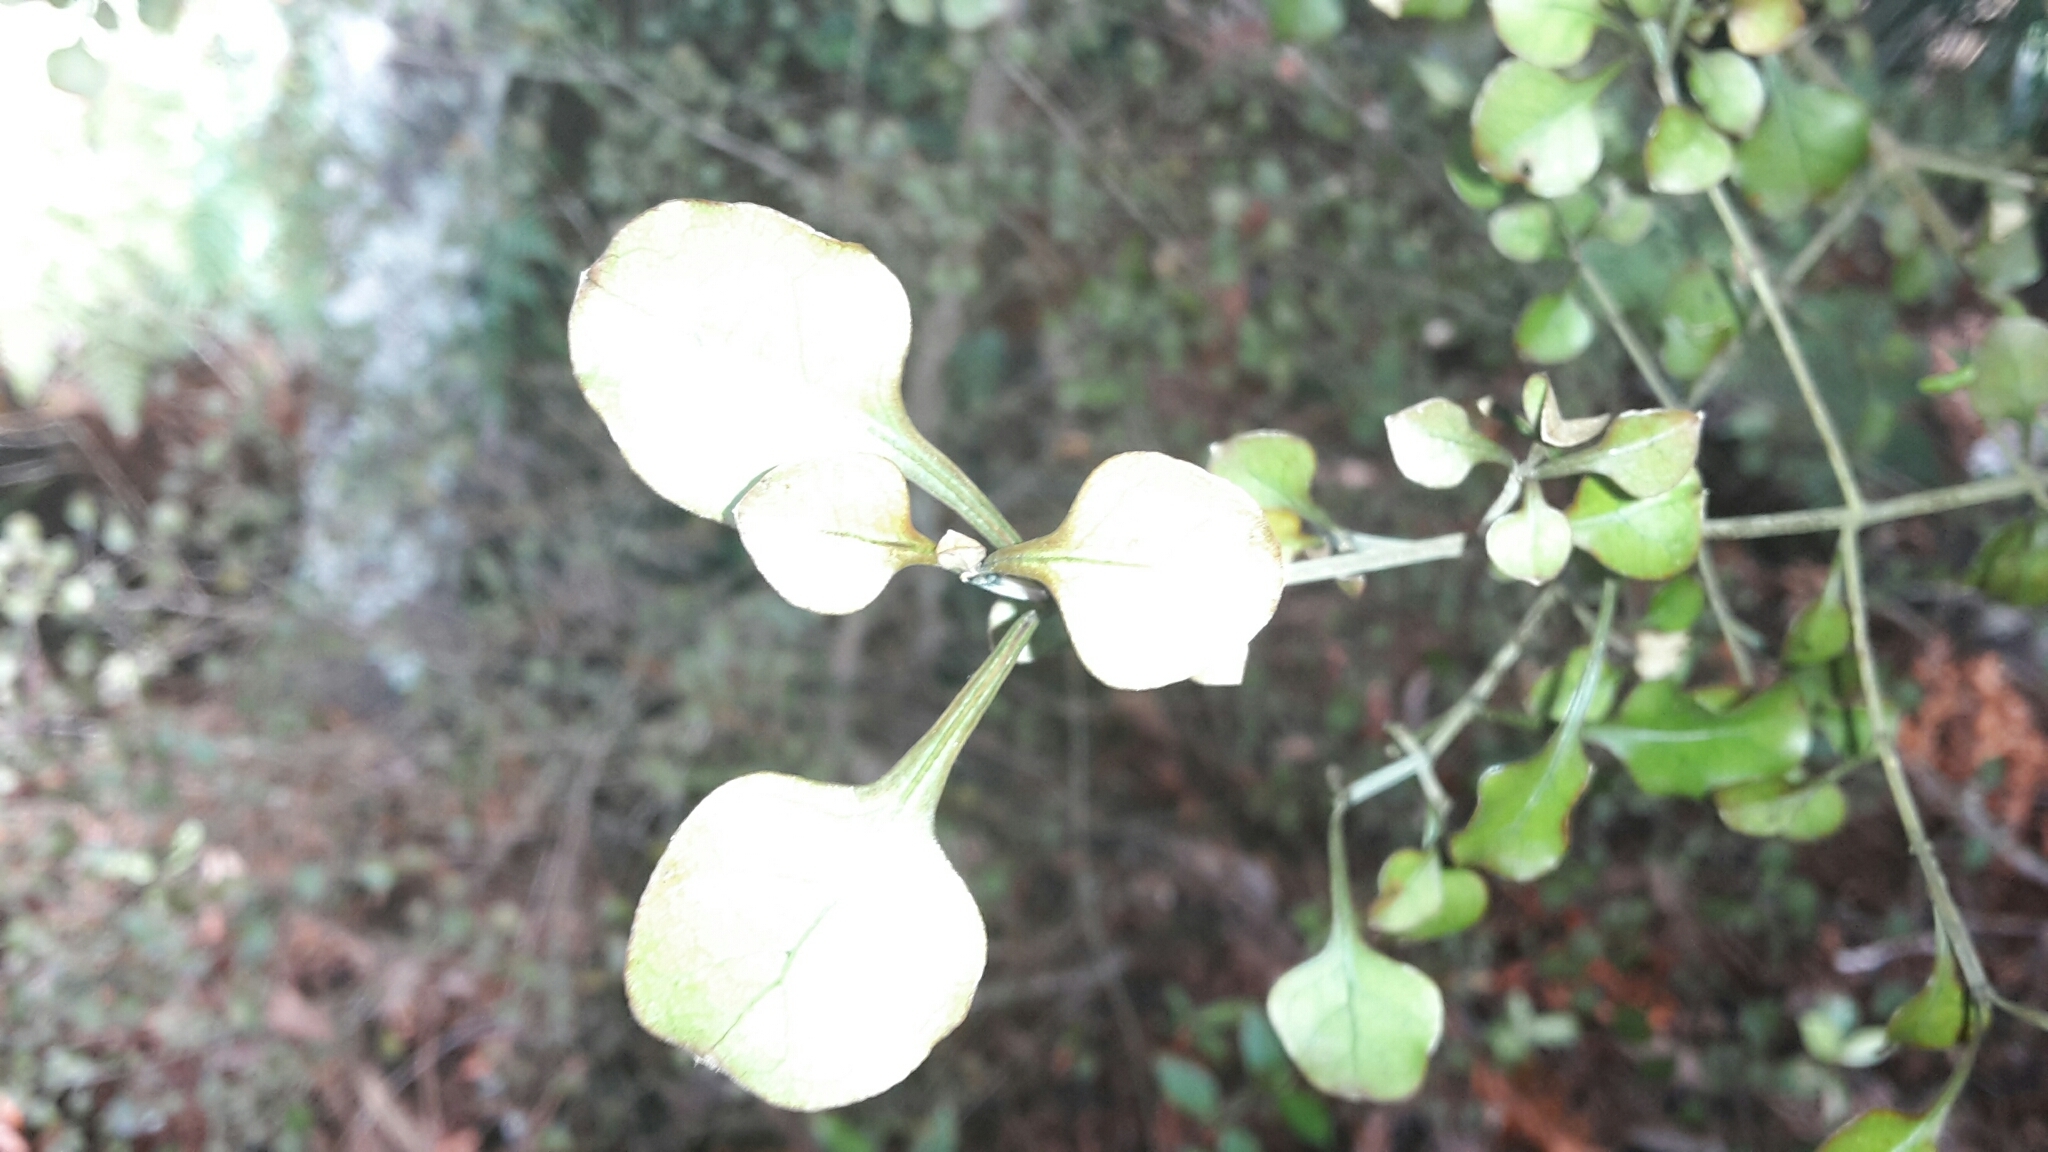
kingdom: Plantae
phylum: Tracheophyta
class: Magnoliopsida
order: Gentianales
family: Rubiaceae
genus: Coprosma
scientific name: Coprosma arborea
